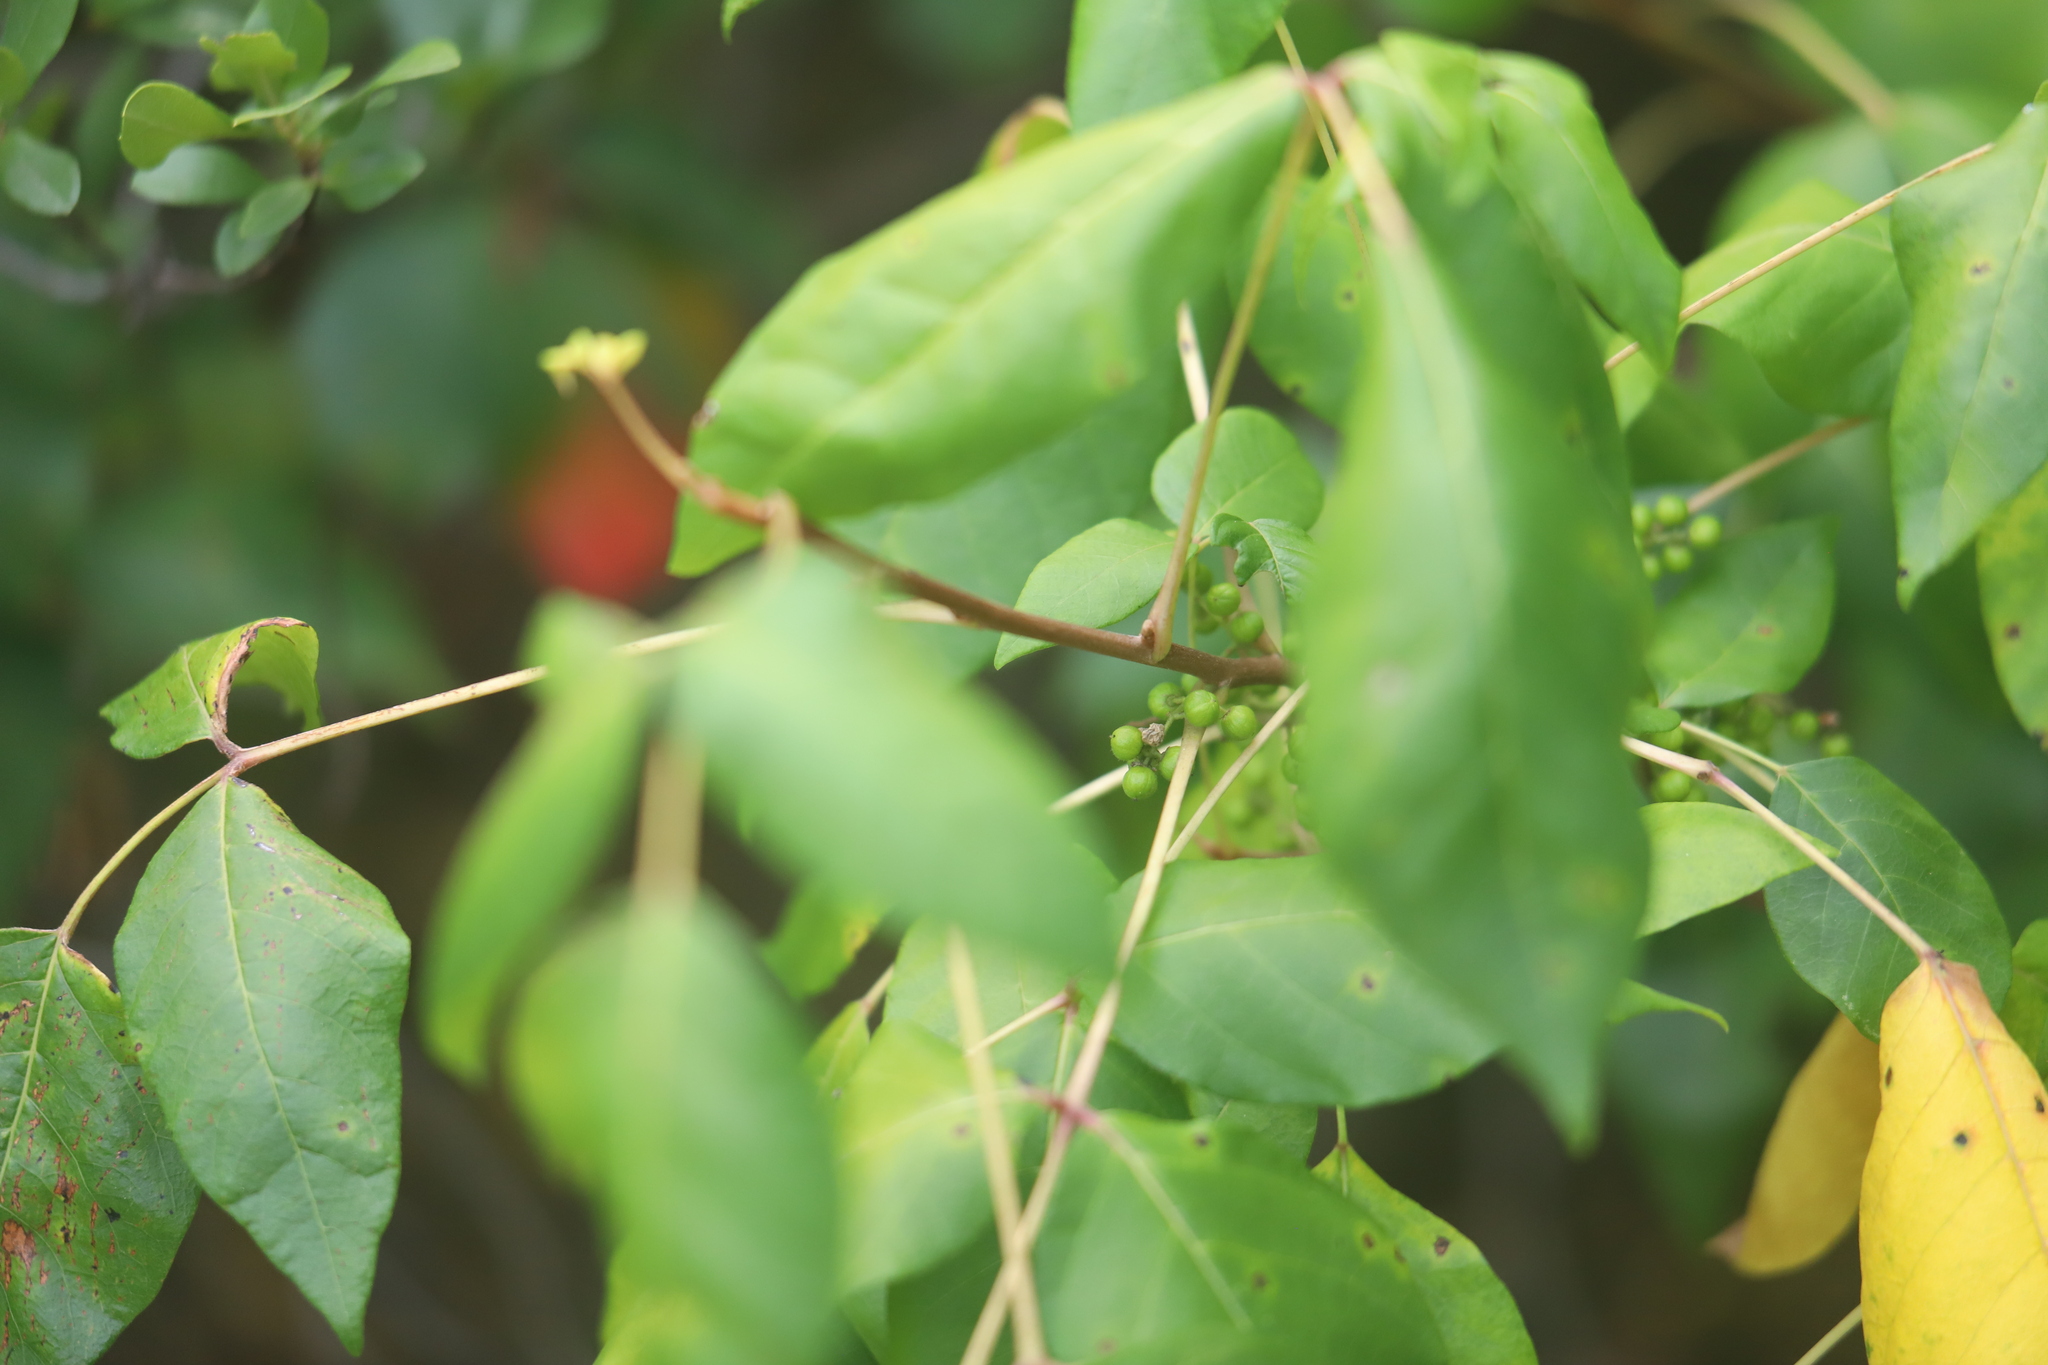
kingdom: Plantae
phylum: Tracheophyta
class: Magnoliopsida
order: Sapindales
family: Anacardiaceae
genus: Toxicodendron
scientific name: Toxicodendron radicans
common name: Poison ivy
